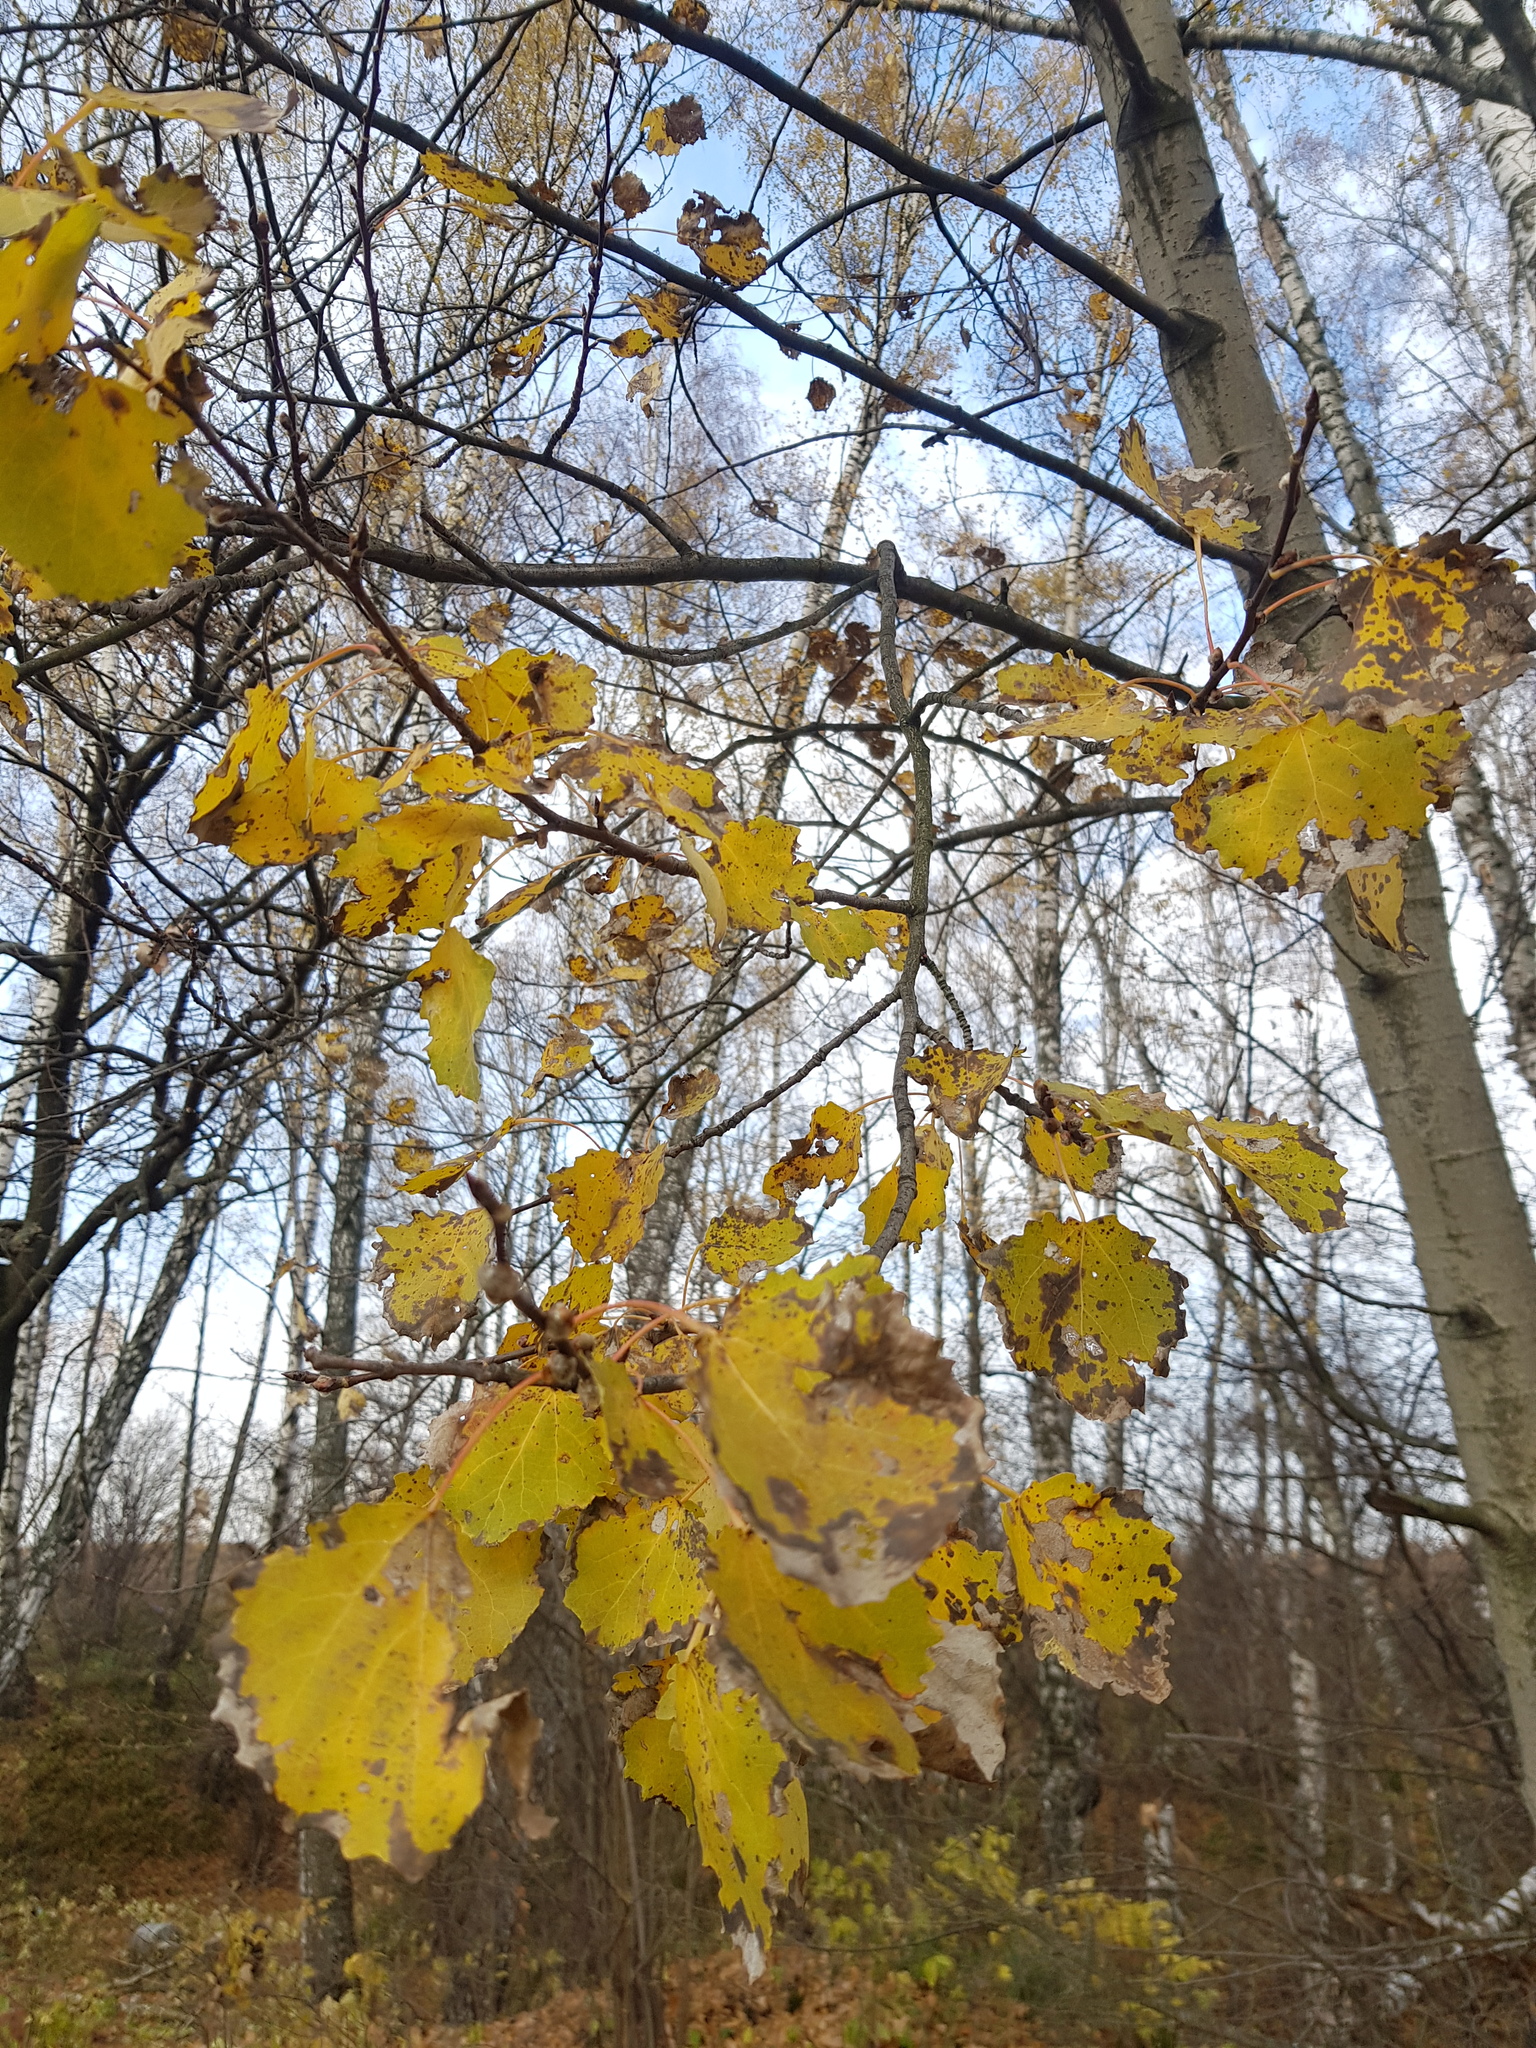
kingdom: Plantae
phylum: Tracheophyta
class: Magnoliopsida
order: Malpighiales
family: Salicaceae
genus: Populus
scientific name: Populus tremula
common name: European aspen
